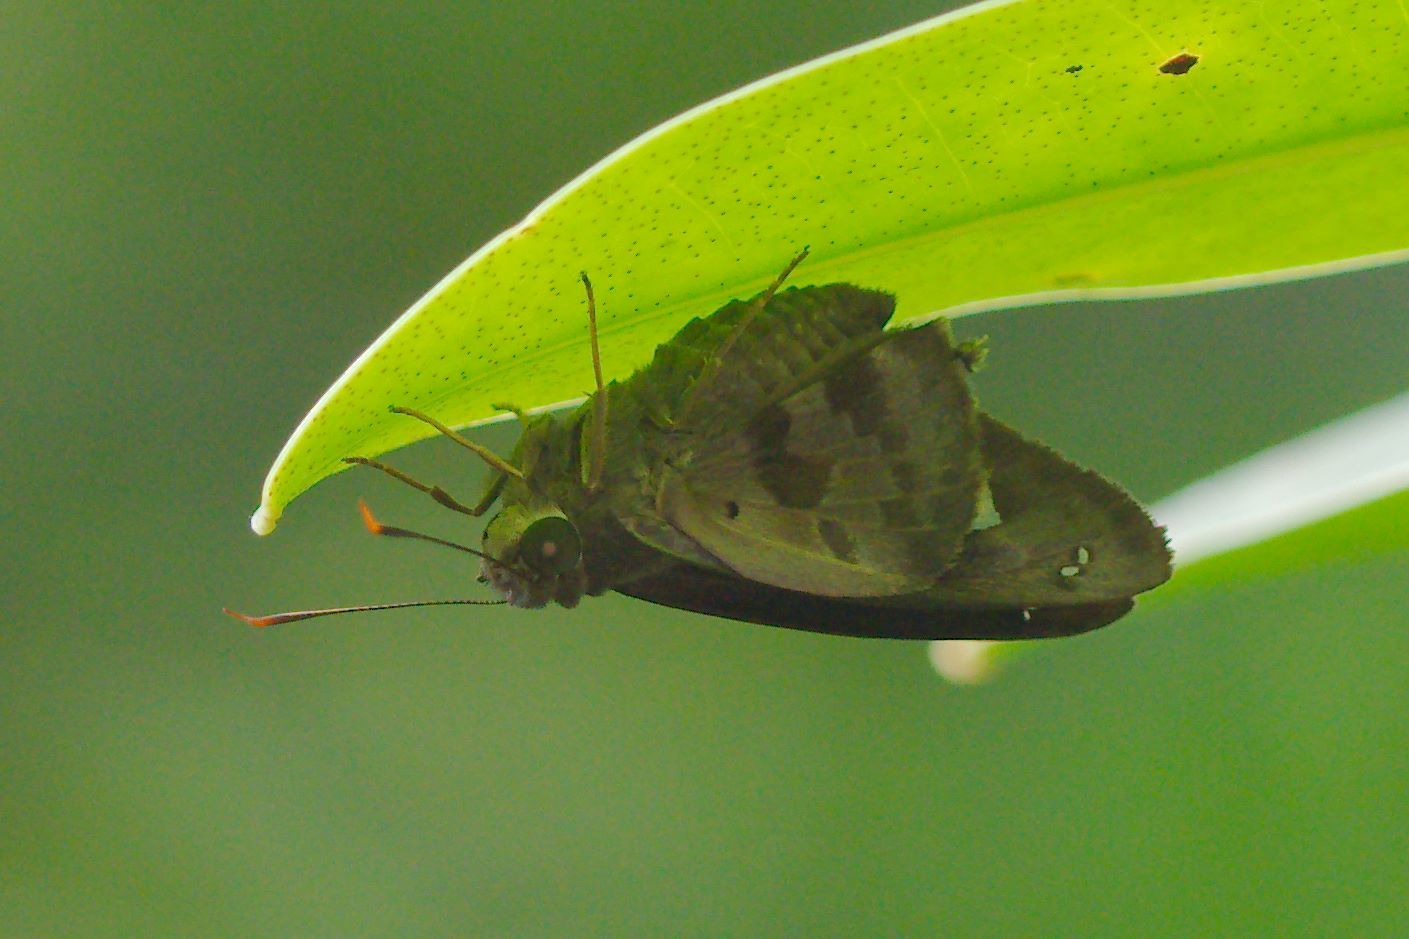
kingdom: Animalia
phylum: Arthropoda
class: Insecta
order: Lepidoptera
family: Hesperiidae
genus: Polygonus
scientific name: Polygonus leo
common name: Hammoch skipper
